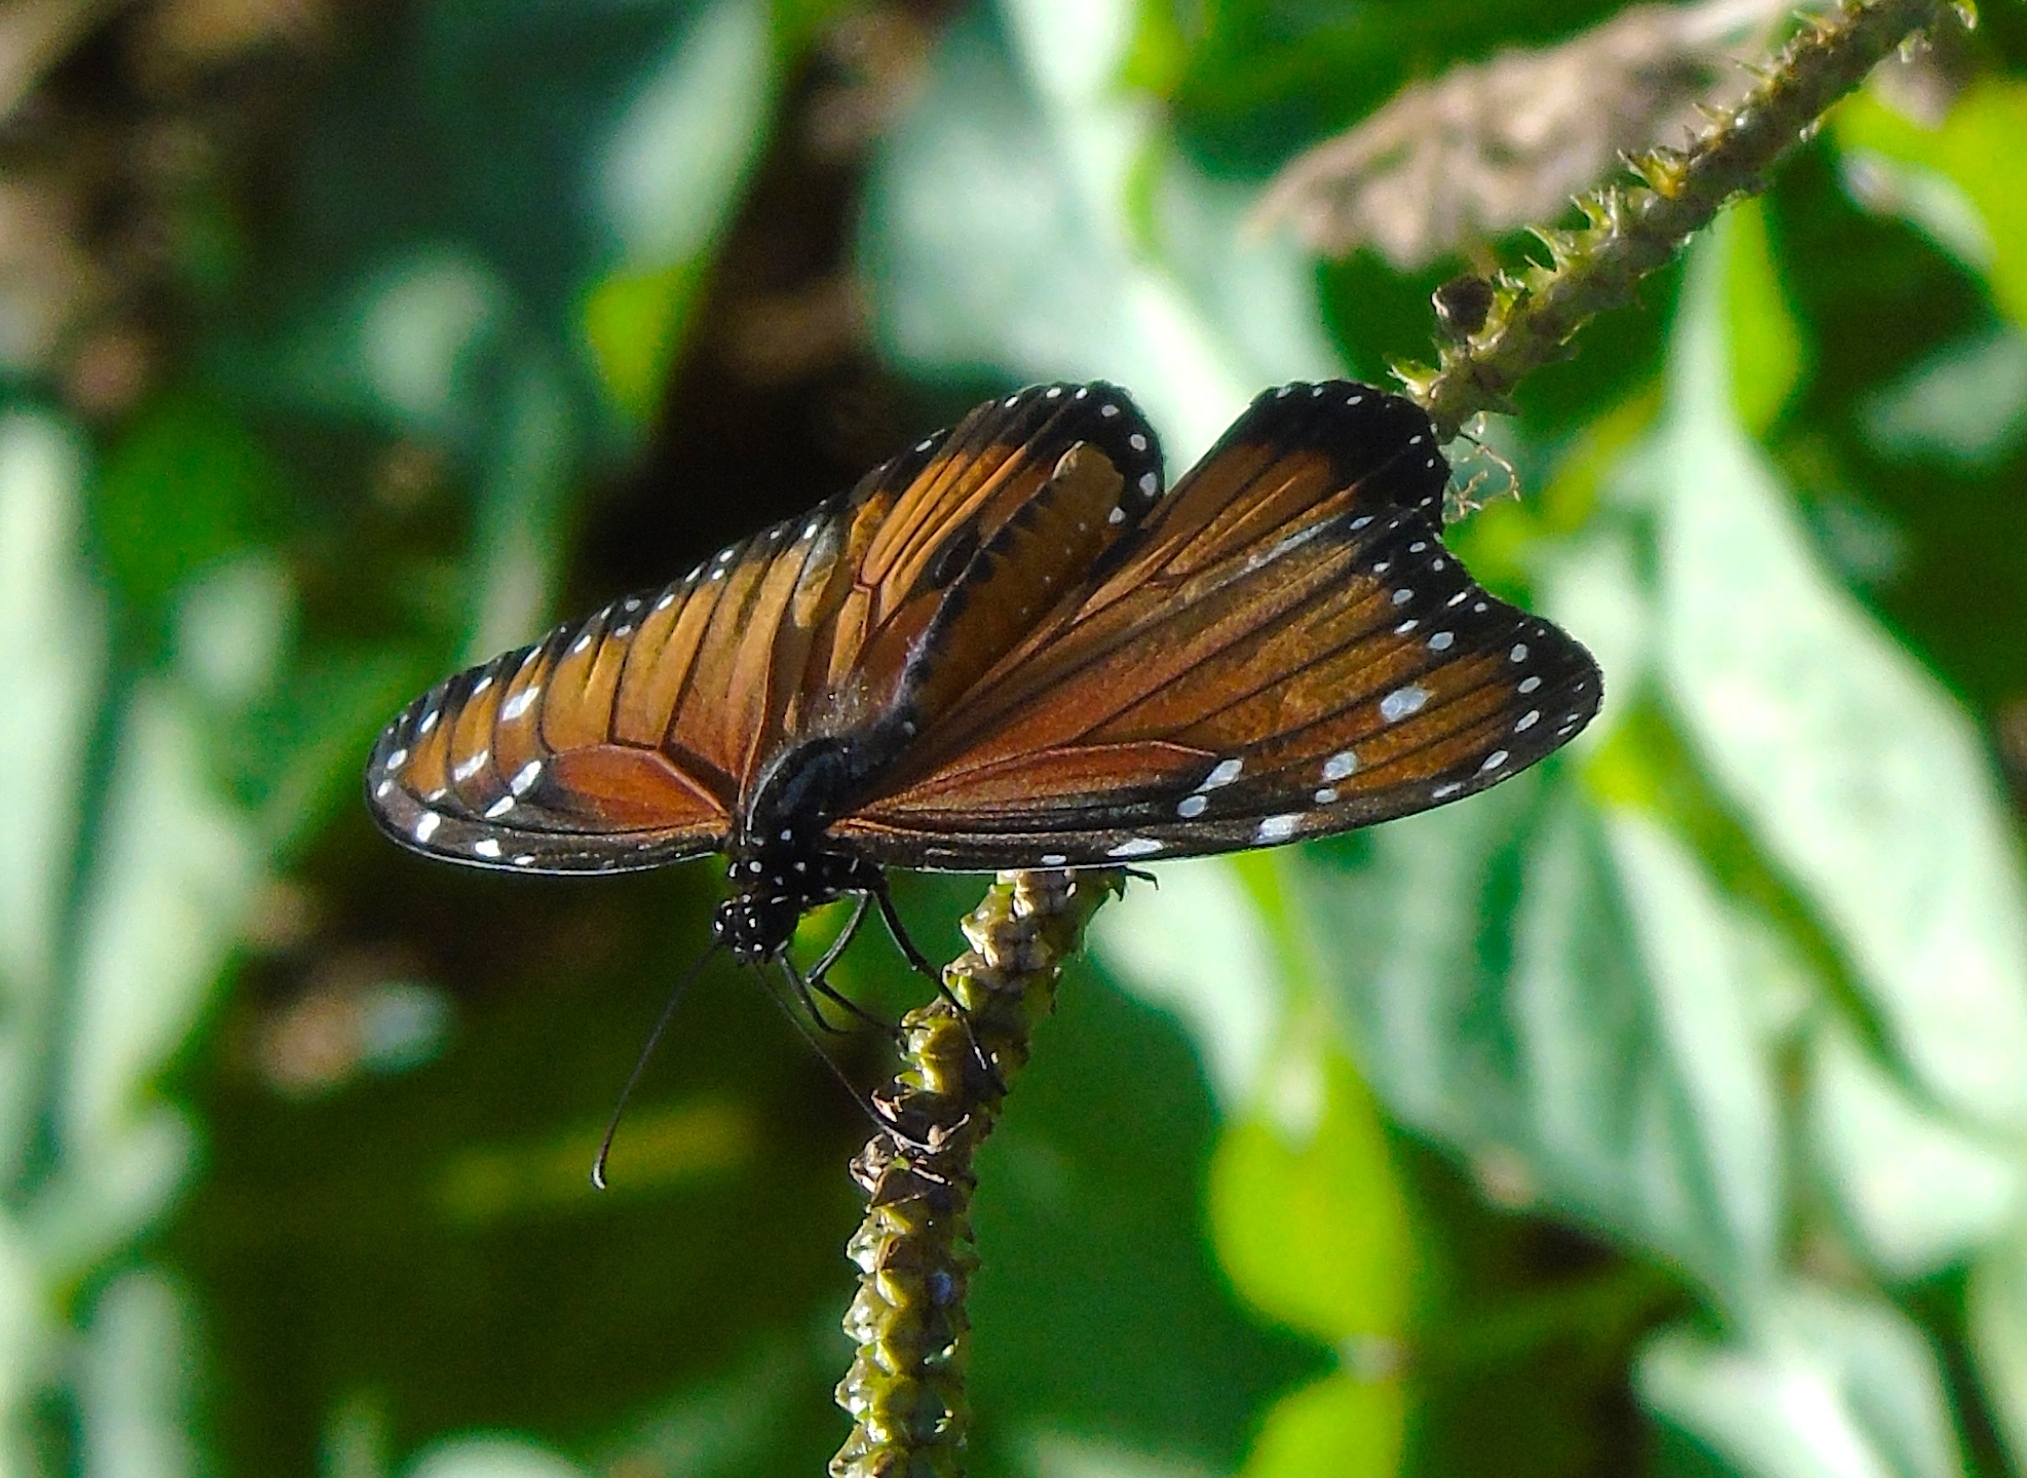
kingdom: Animalia
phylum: Arthropoda
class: Insecta
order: Lepidoptera
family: Nymphalidae
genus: Danaus
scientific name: Danaus eresimus
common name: Soldier
